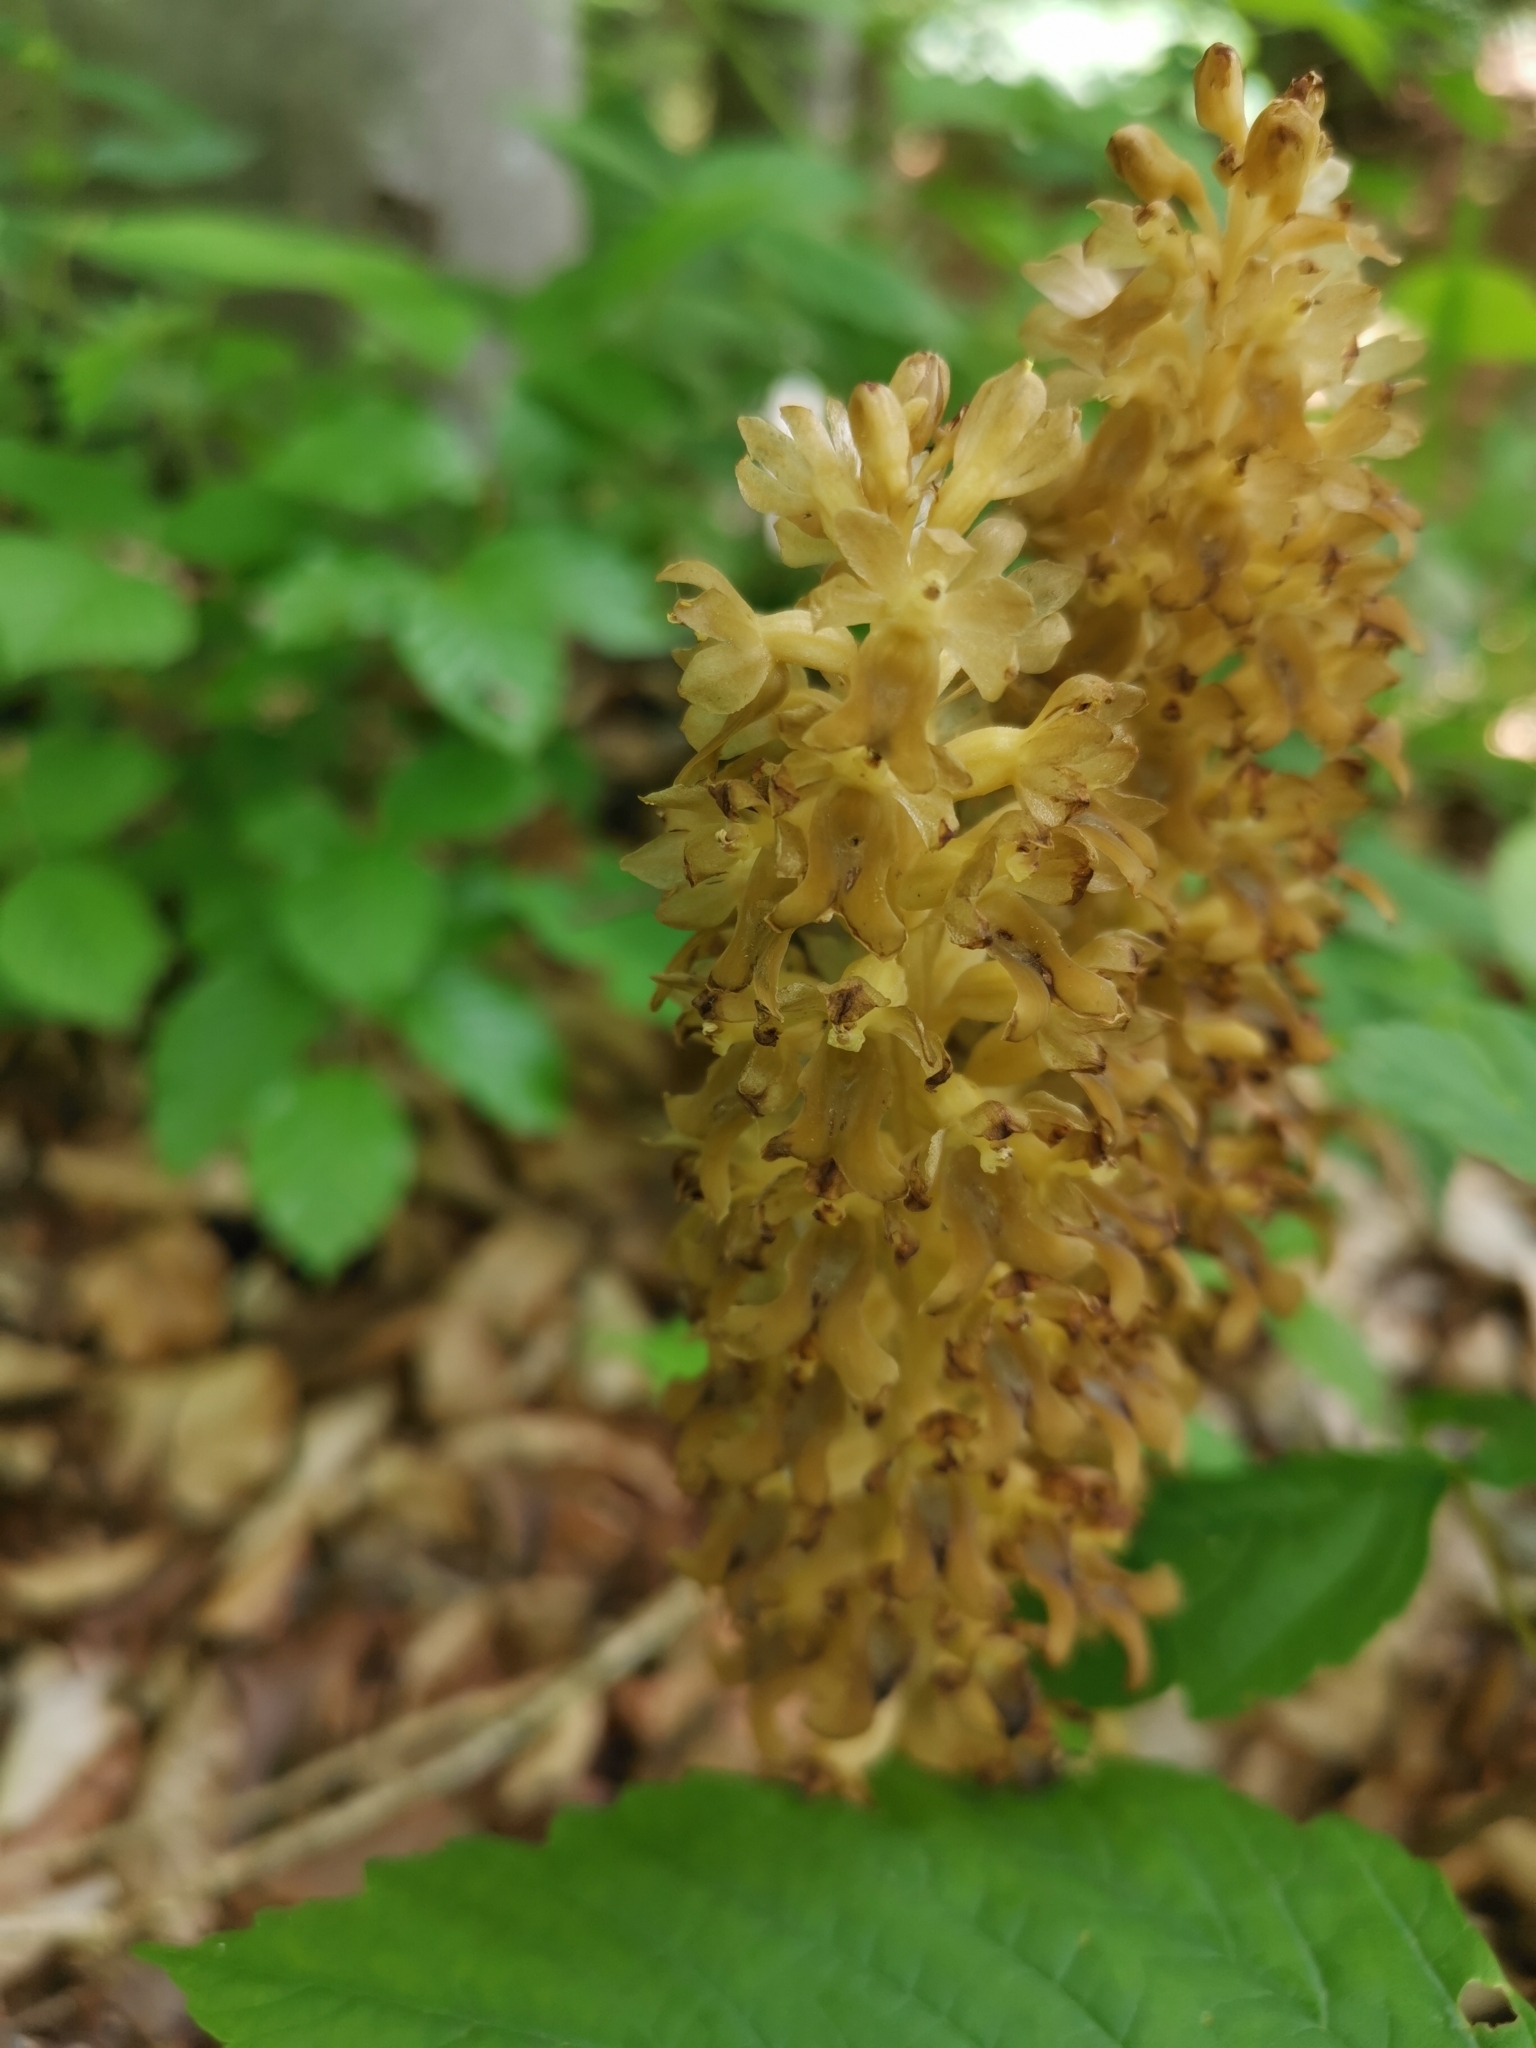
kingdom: Plantae
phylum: Tracheophyta
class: Liliopsida
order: Asparagales
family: Orchidaceae
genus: Neottia
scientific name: Neottia nidus-avis
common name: Bird's-nest orchid
